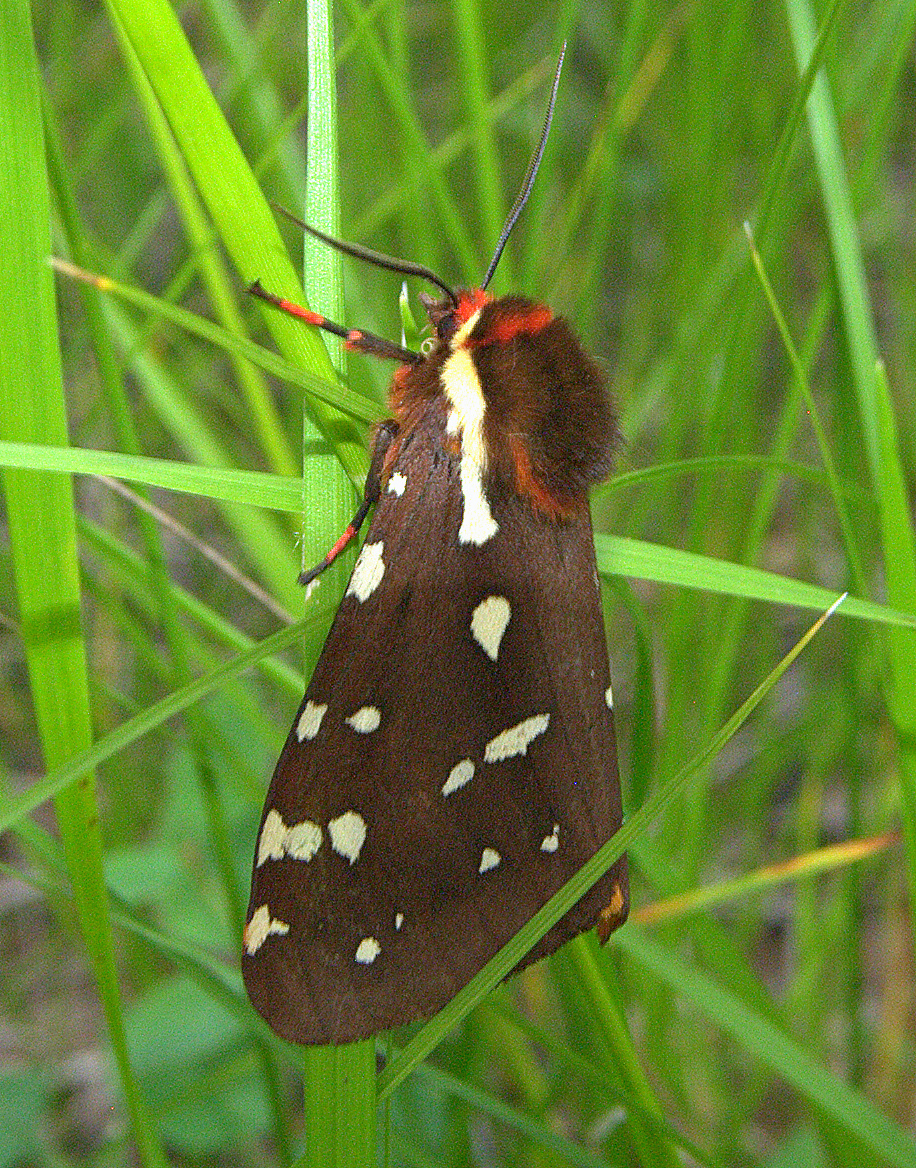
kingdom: Animalia
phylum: Arthropoda
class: Insecta
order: Lepidoptera
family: Erebidae
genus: Arctia
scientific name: Arctia parthenos
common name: St. lawrence tiger moth
